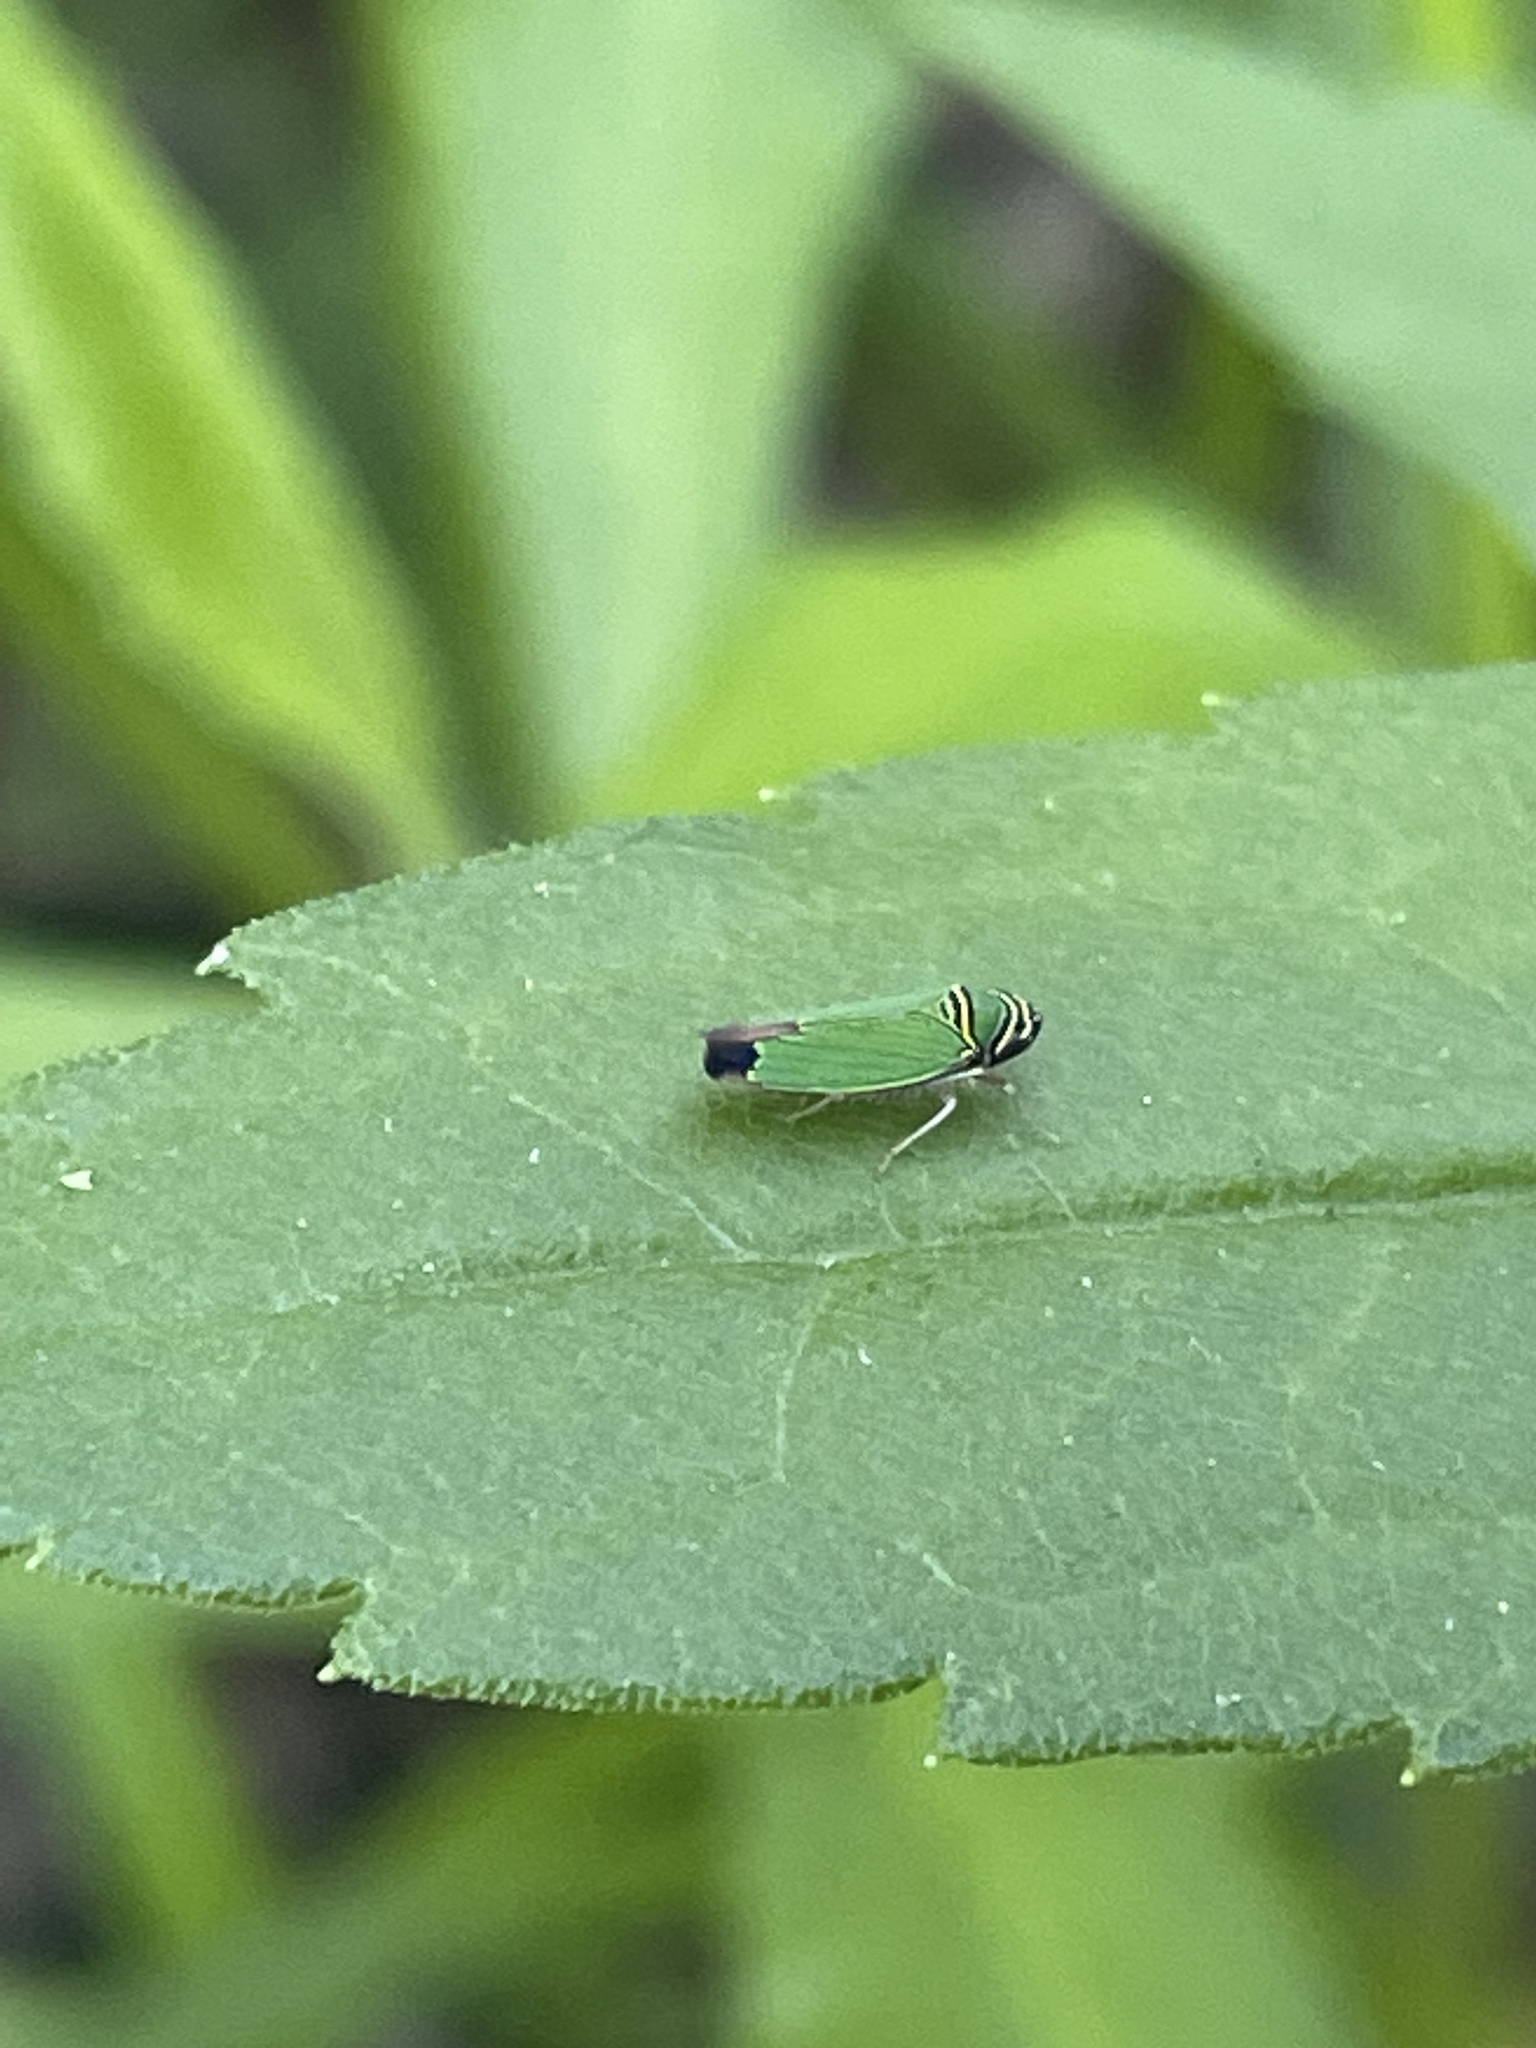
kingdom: Animalia
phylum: Arthropoda
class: Insecta
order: Hemiptera
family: Cicadellidae
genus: Tylozygus
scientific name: Tylozygus geometricus
